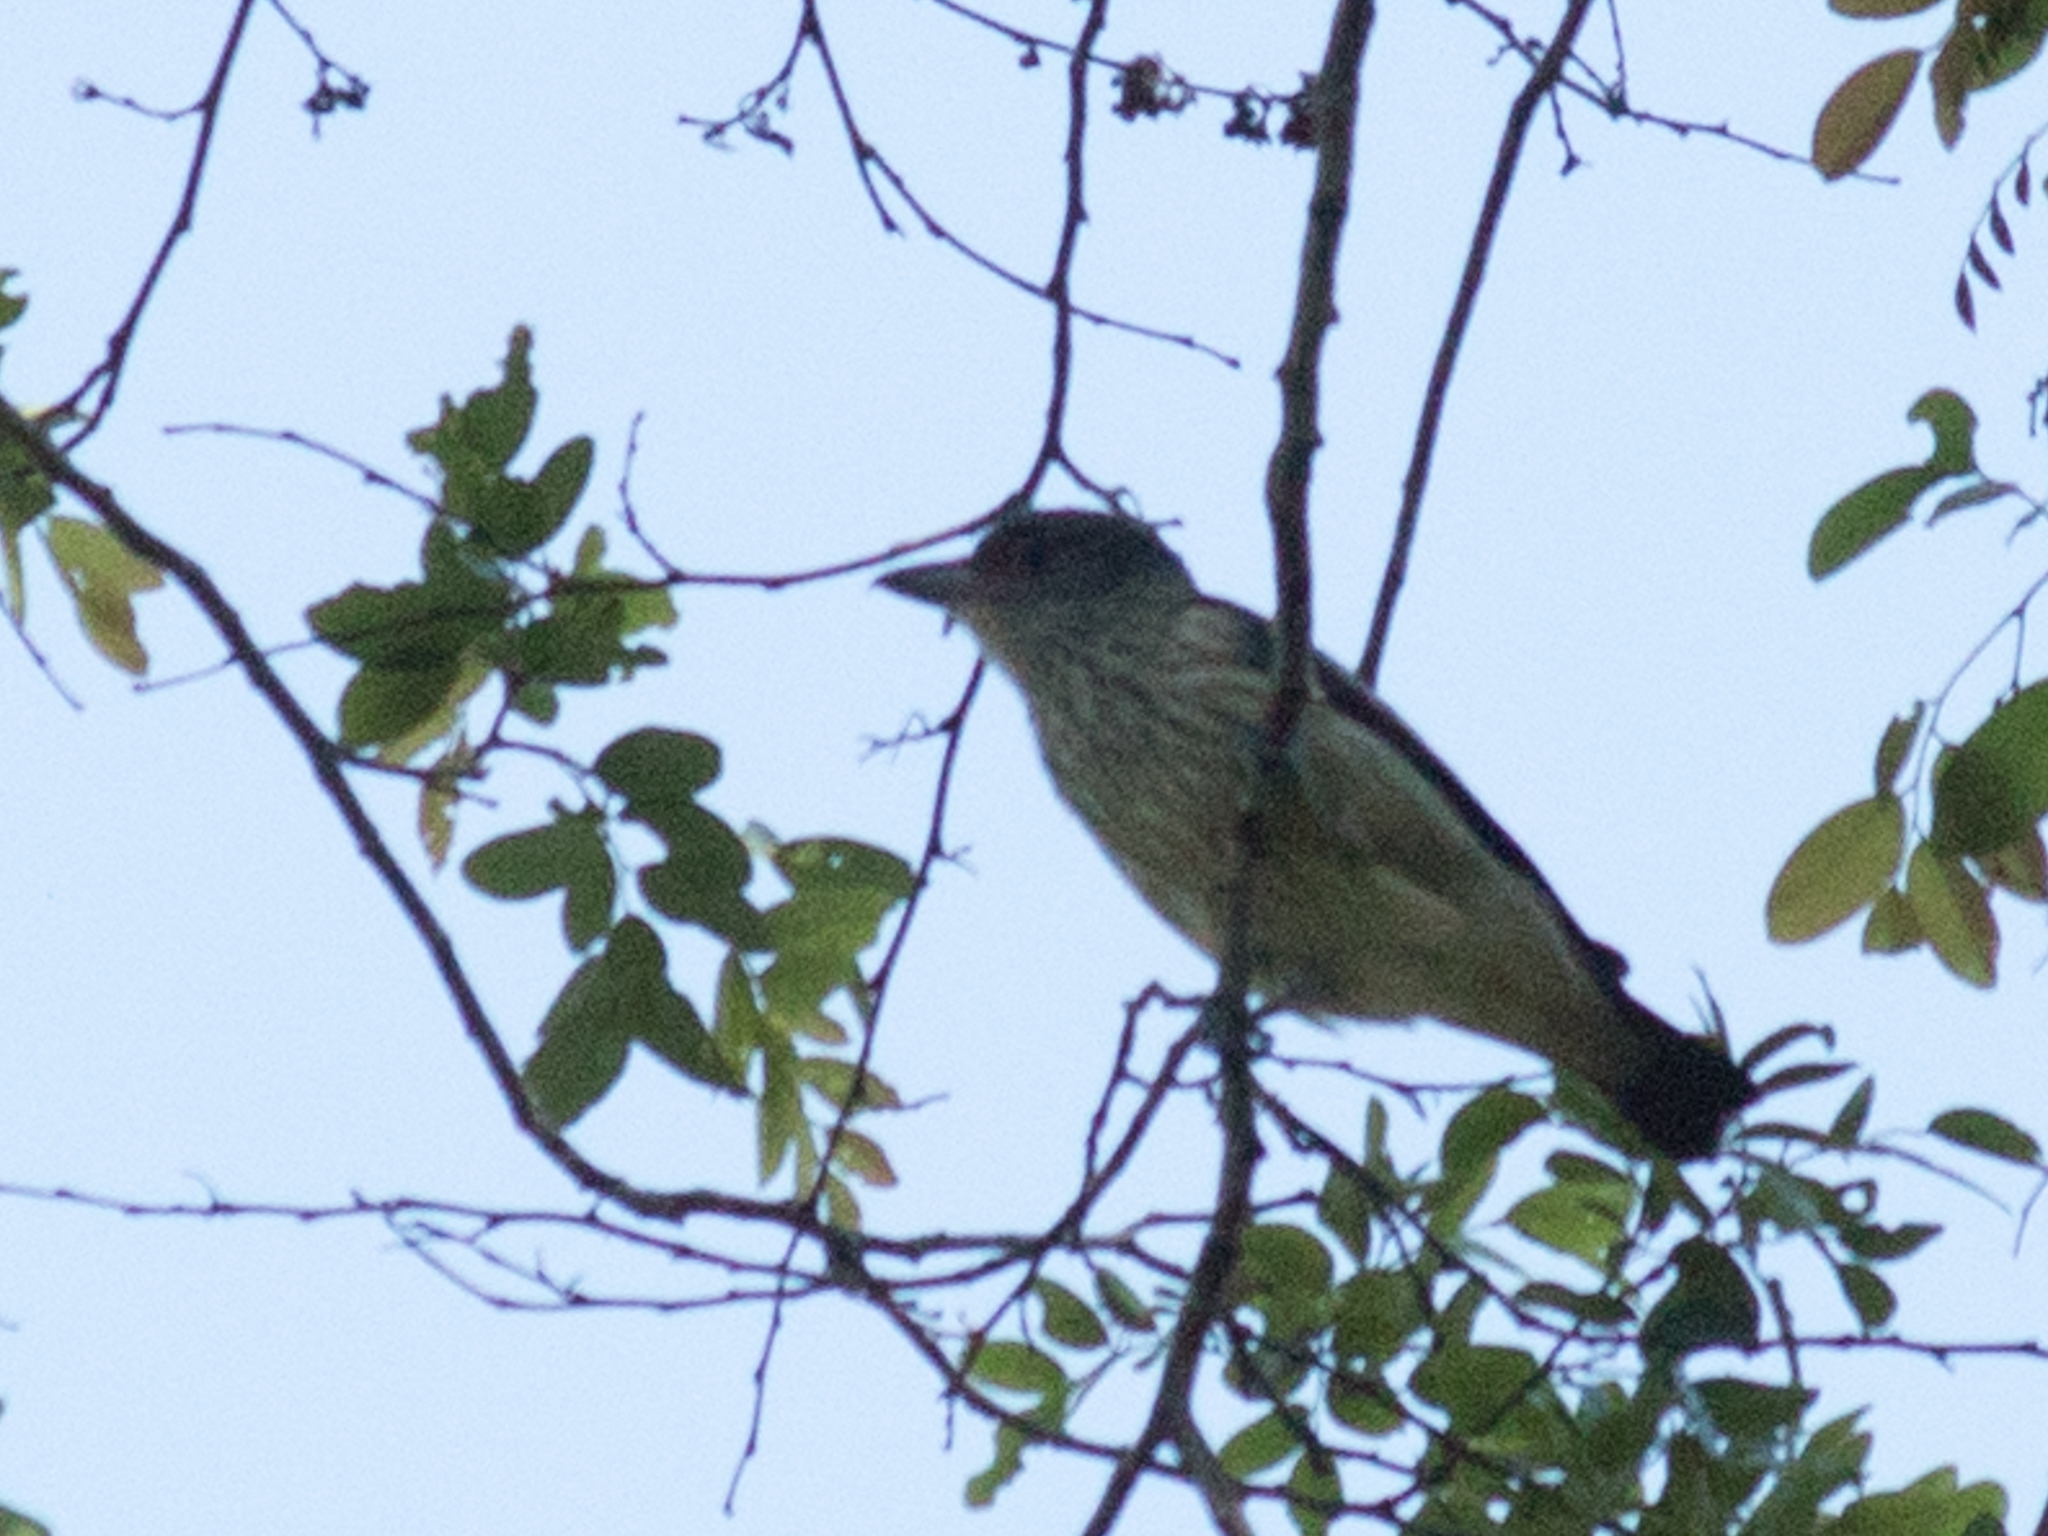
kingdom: Animalia
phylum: Chordata
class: Aves
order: Passeriformes
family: Cotingidae
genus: Tityra
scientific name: Tityra cayana
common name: Black-tailed tityra
